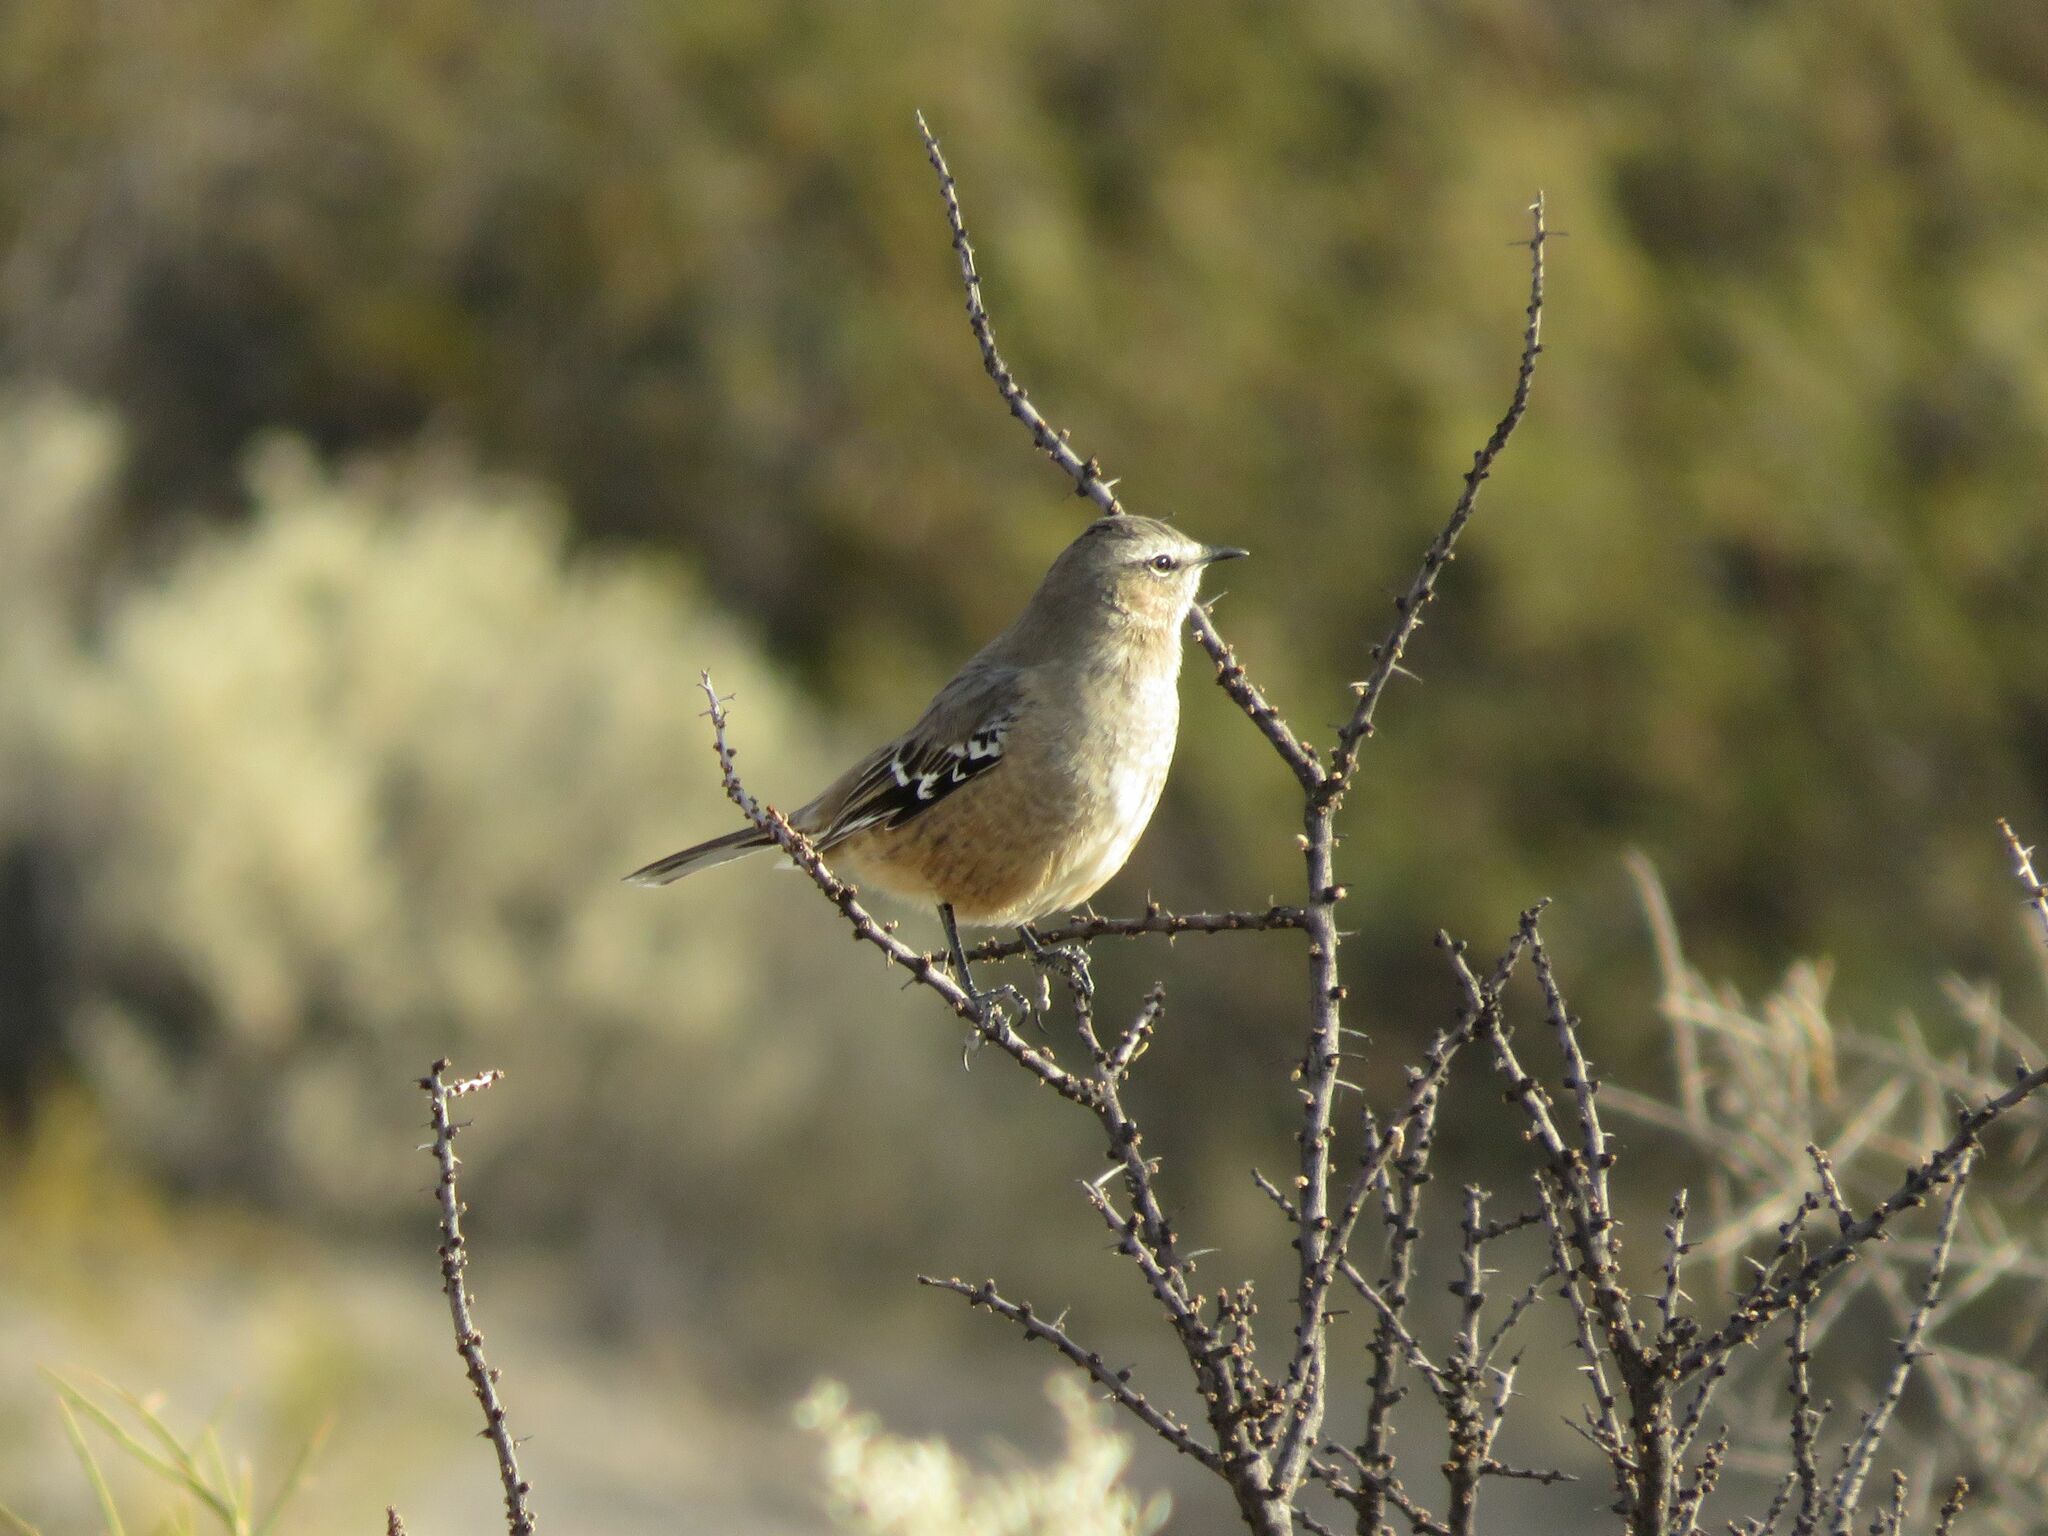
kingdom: Animalia
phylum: Chordata
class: Aves
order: Passeriformes
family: Mimidae
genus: Mimus
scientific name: Mimus patagonicus
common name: Patagonian mockingbird
